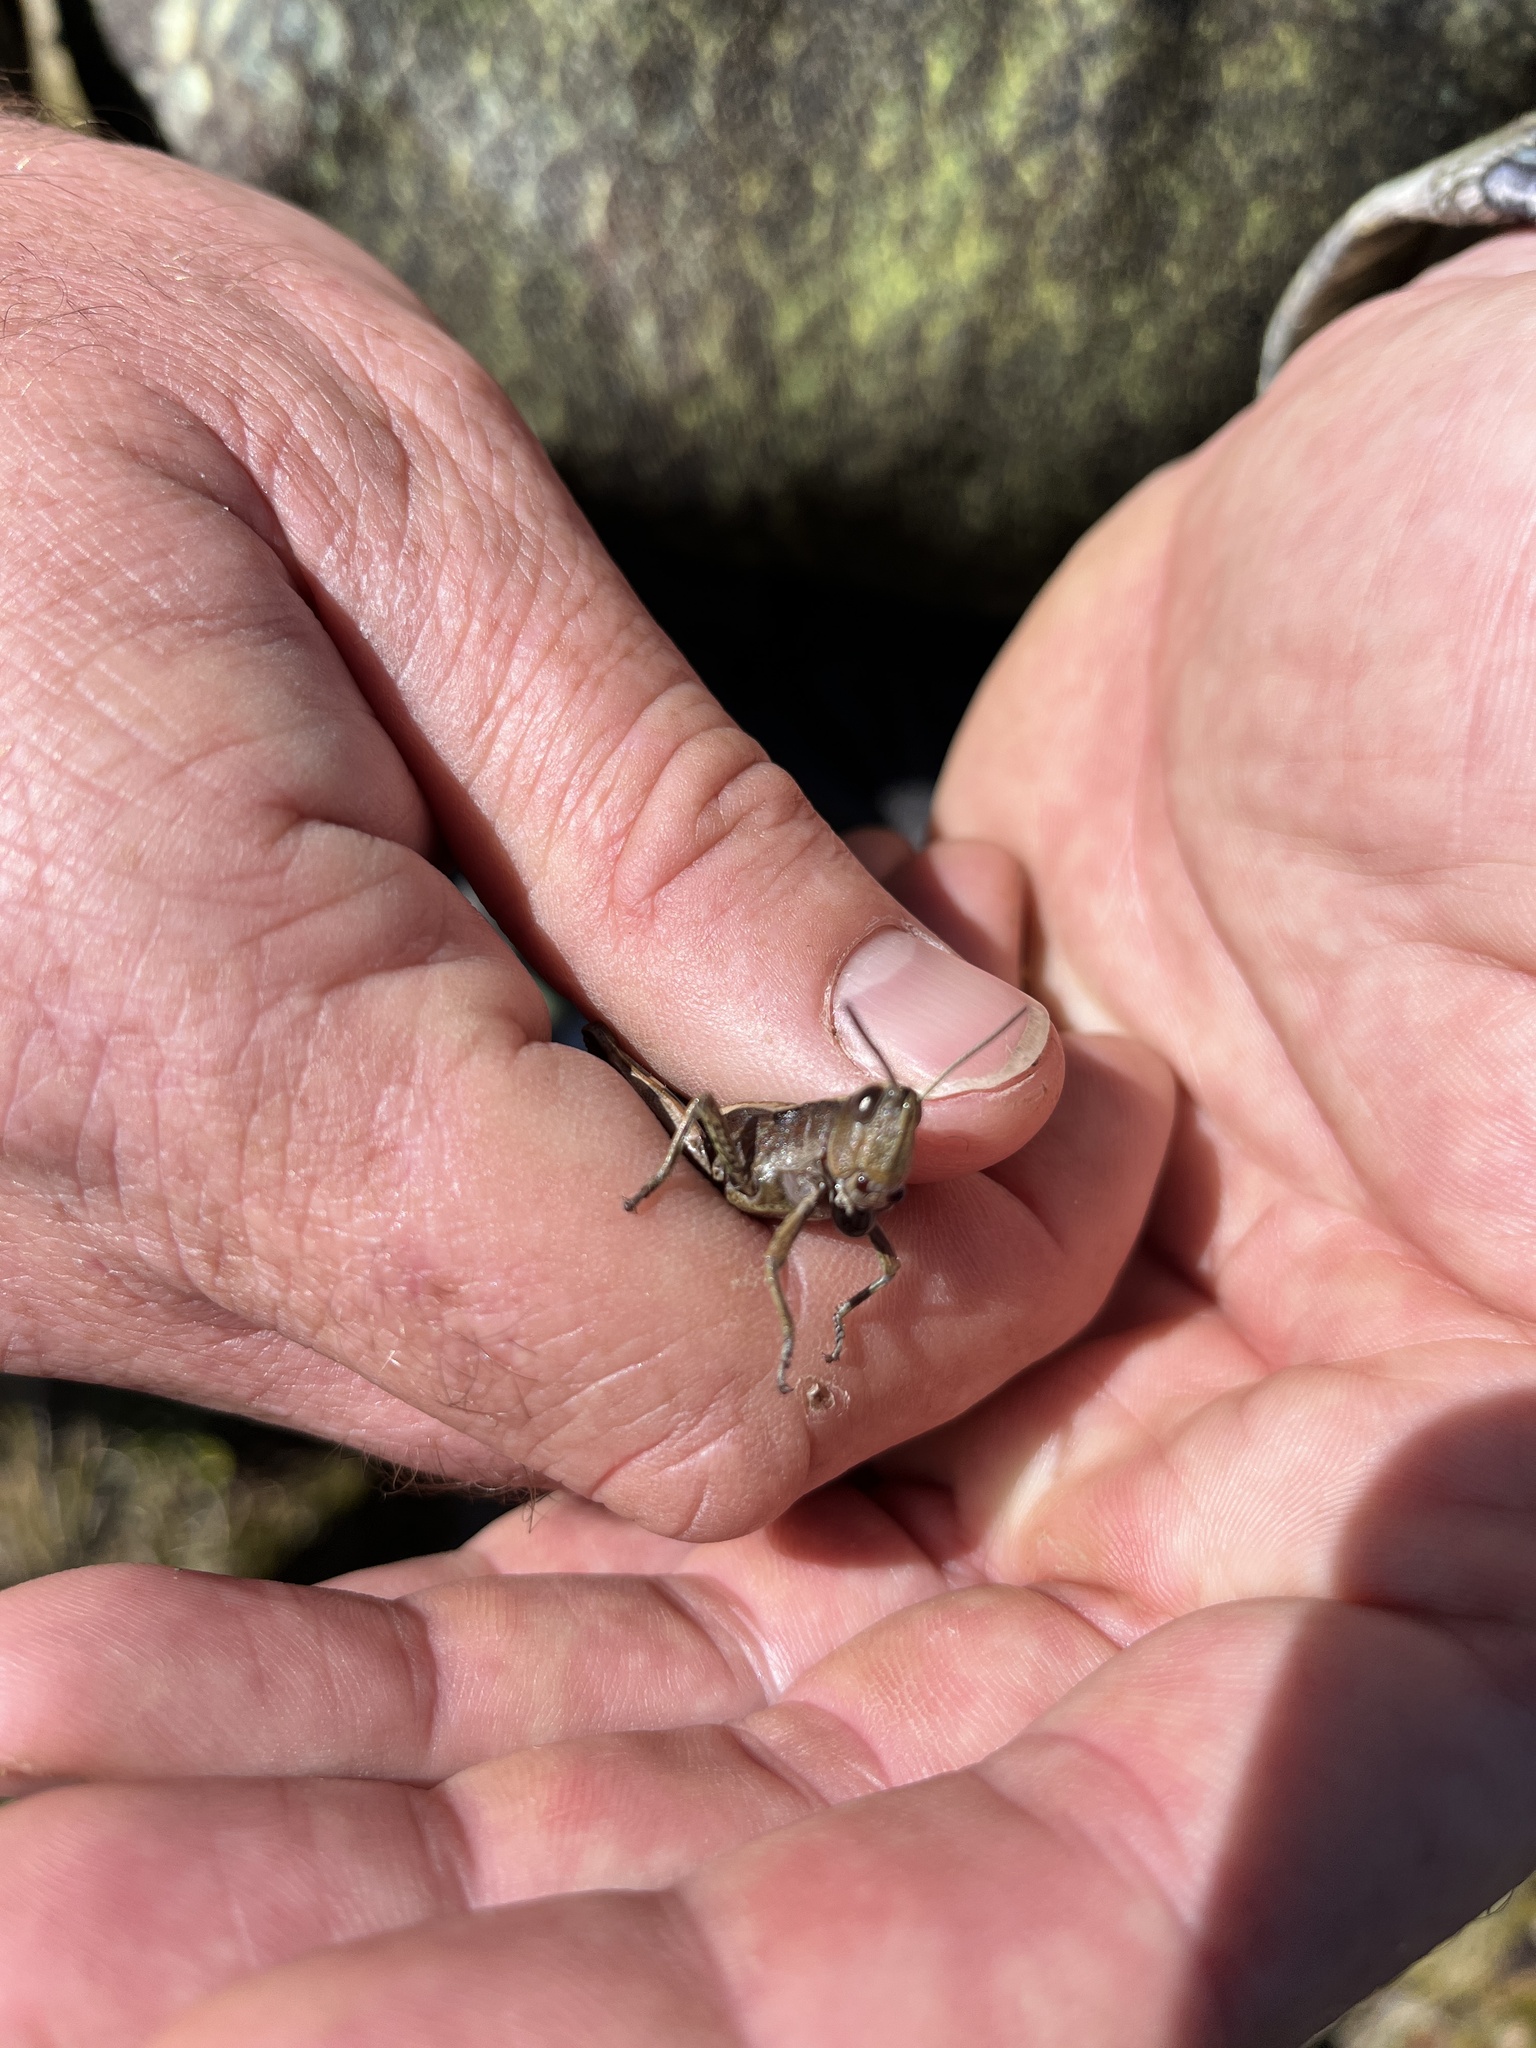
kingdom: Animalia
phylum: Arthropoda
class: Insecta
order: Orthoptera
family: Acrididae
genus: Sigaus
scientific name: Sigaus piliferus
